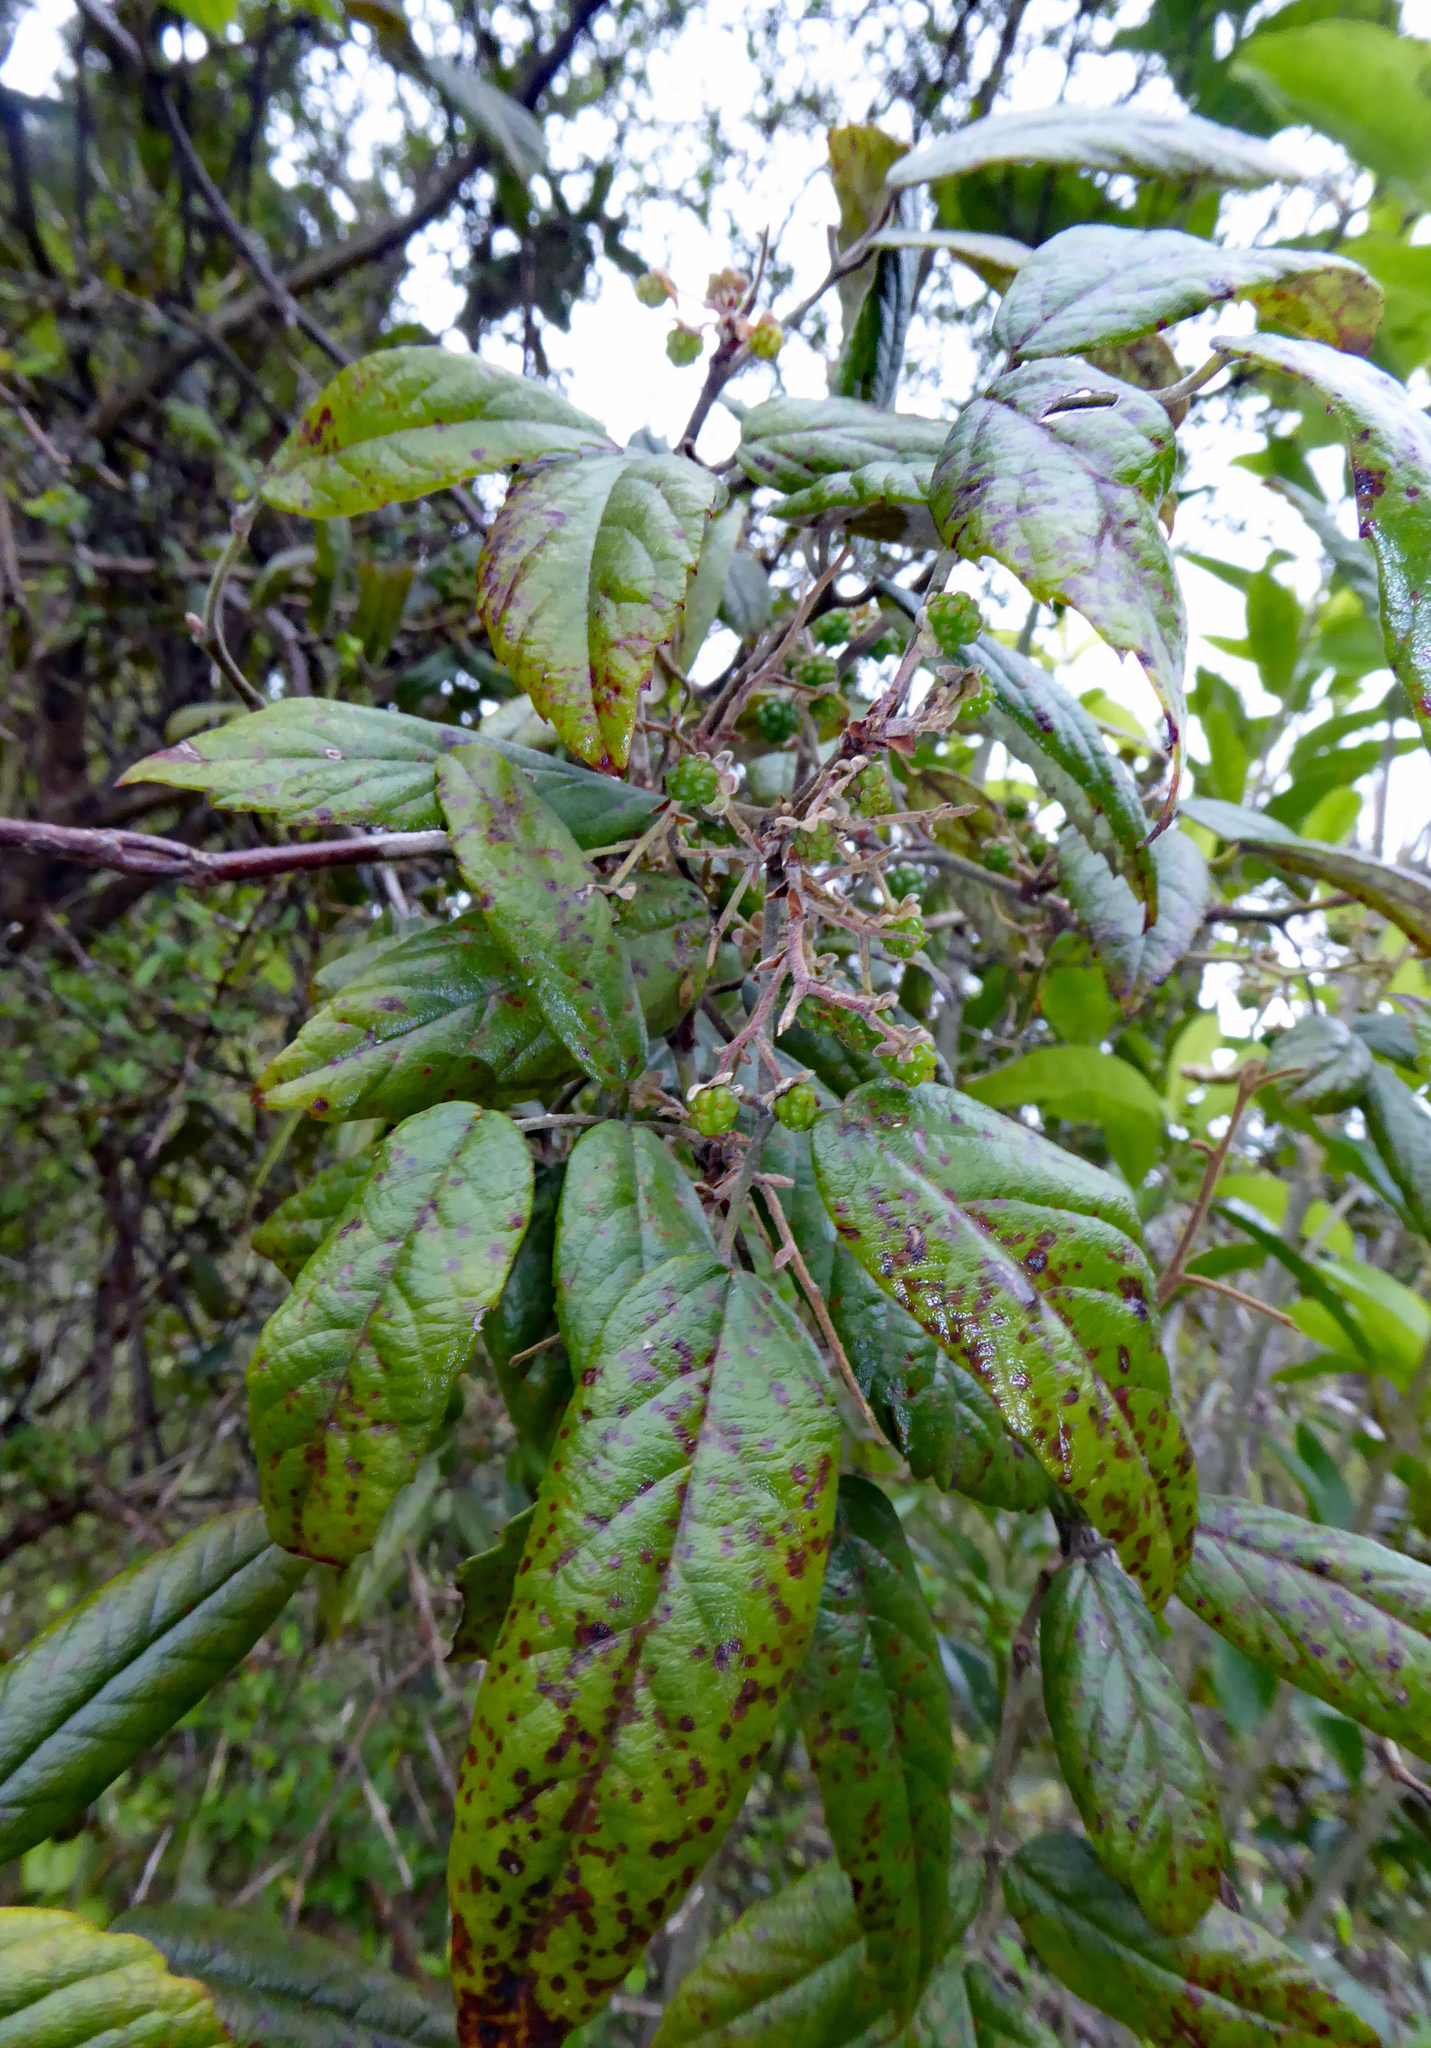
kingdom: Plantae
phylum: Tracheophyta
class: Magnoliopsida
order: Rosales
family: Rosaceae
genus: Rubus
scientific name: Rubus schmidelioides
